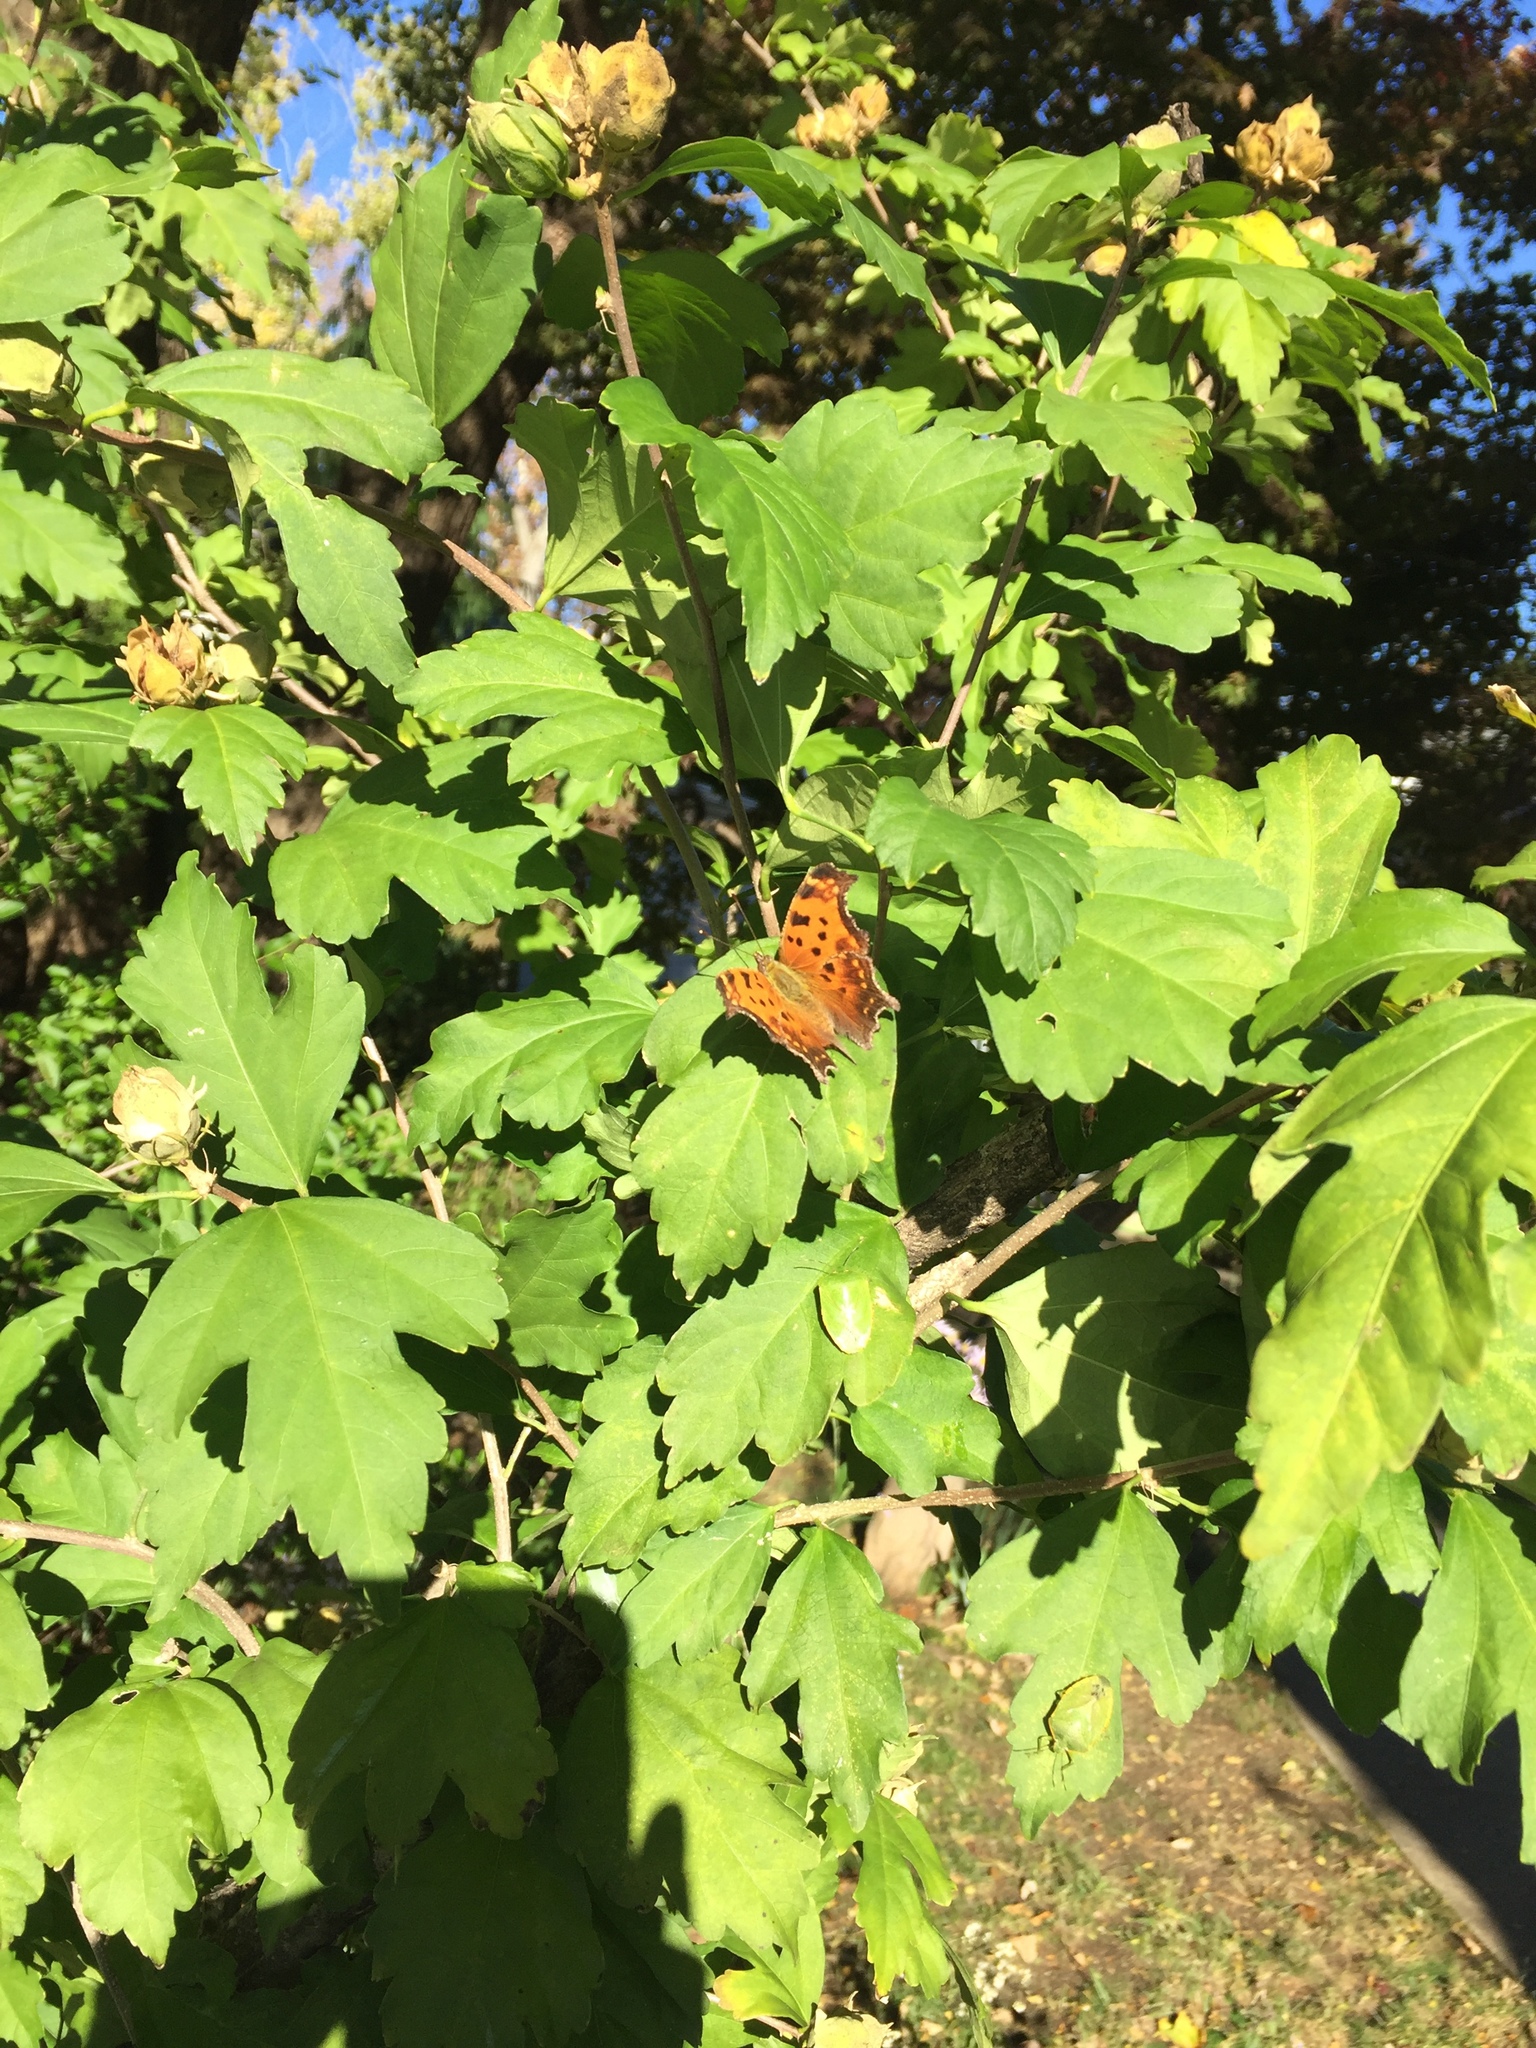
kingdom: Animalia
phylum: Arthropoda
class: Insecta
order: Lepidoptera
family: Nymphalidae
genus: Polygonia
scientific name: Polygonia comma
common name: Eastern comma
